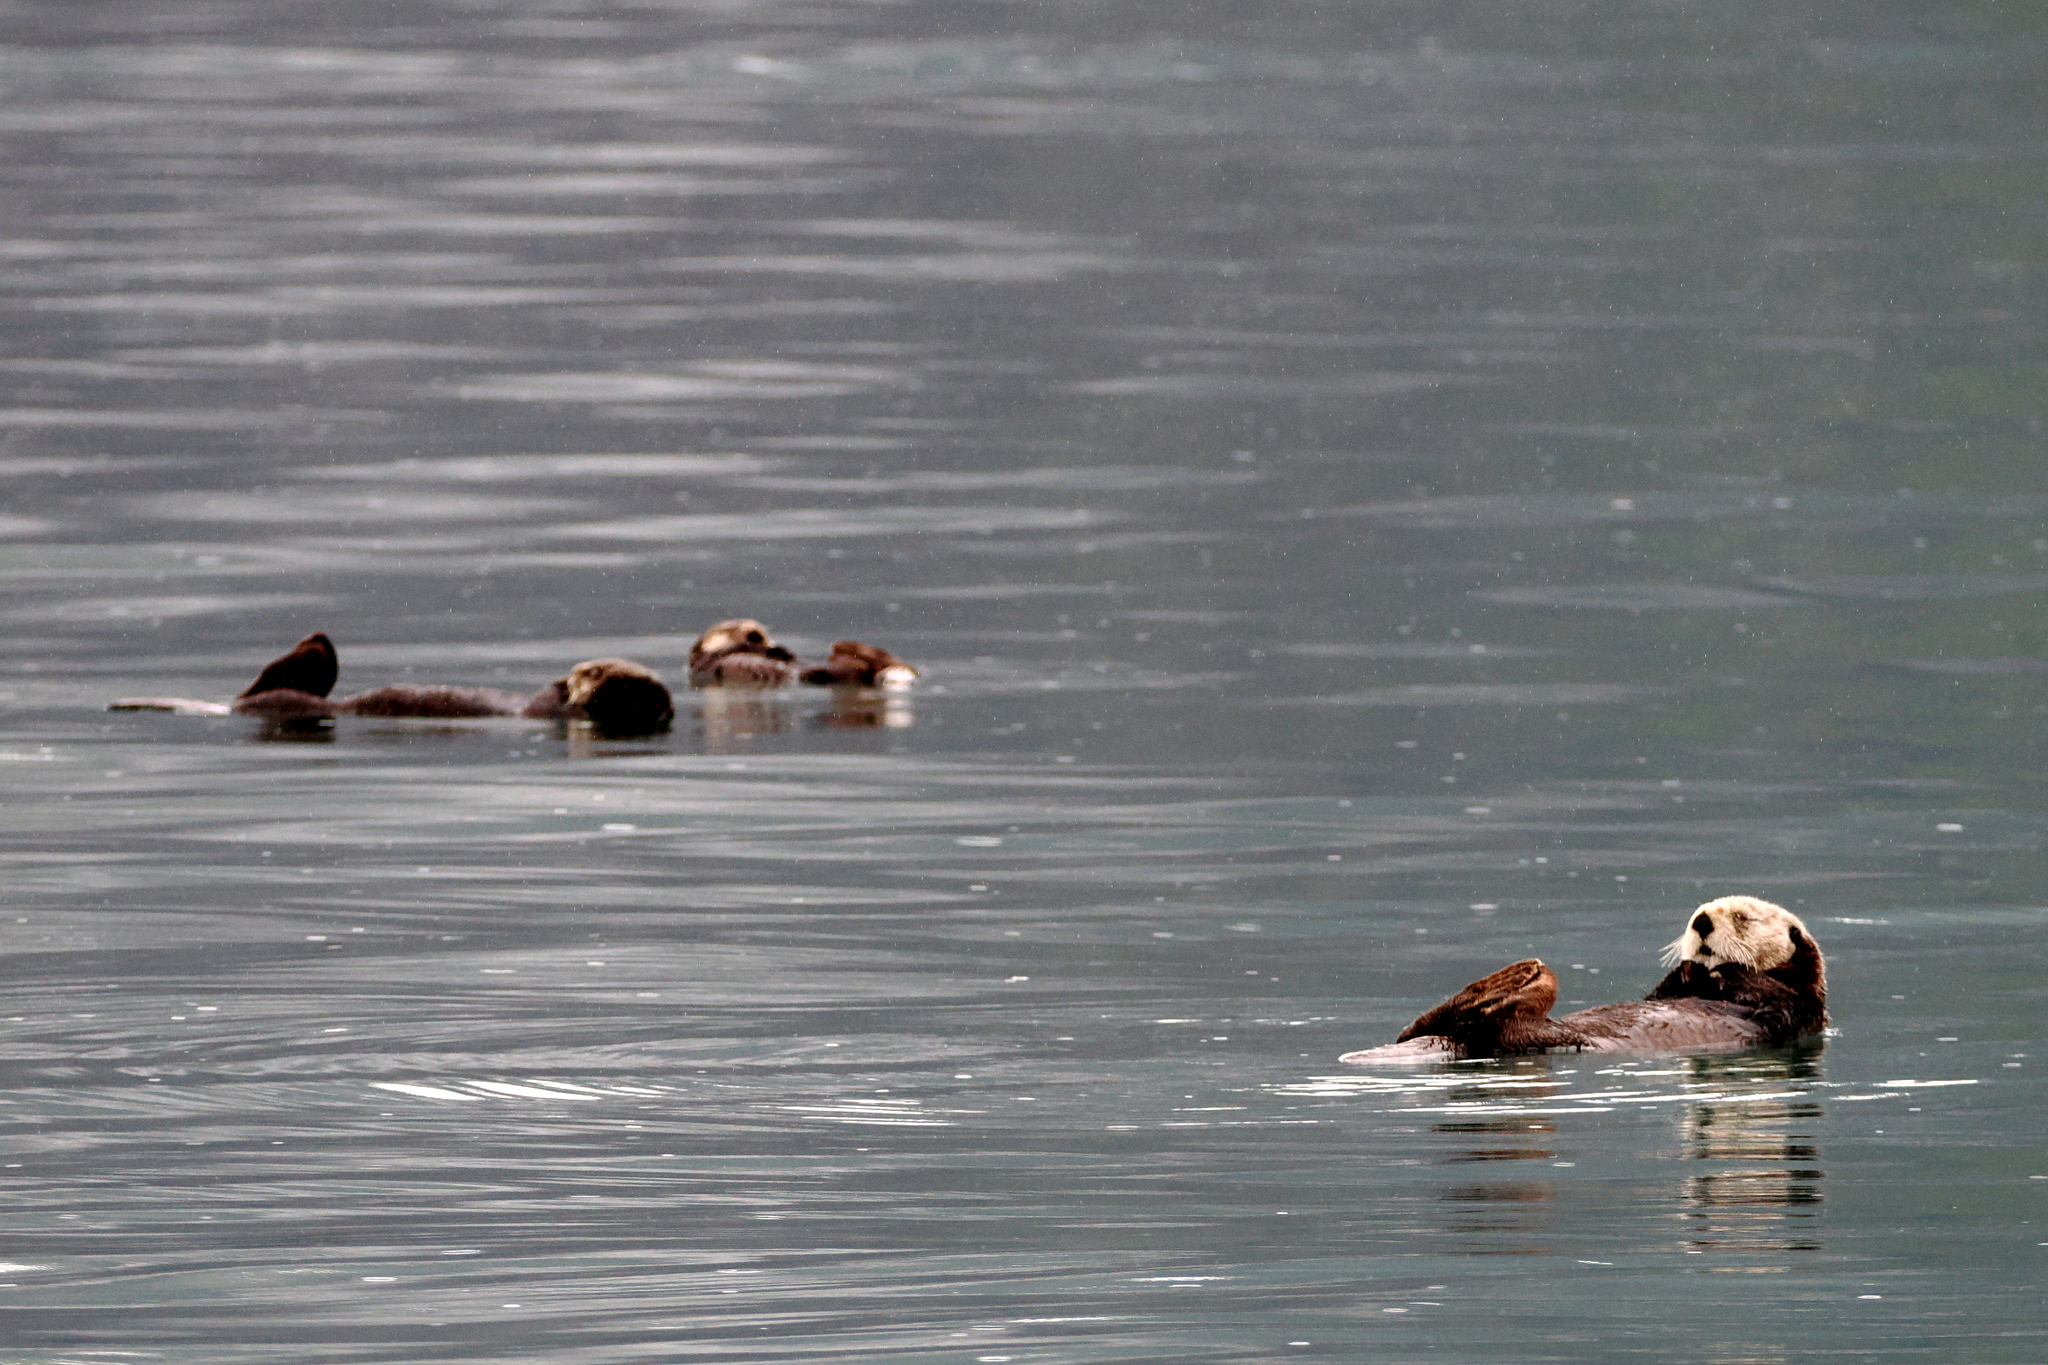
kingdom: Animalia
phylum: Chordata
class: Mammalia
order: Carnivora
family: Mustelidae
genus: Enhydra
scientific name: Enhydra lutris
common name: Sea otter
